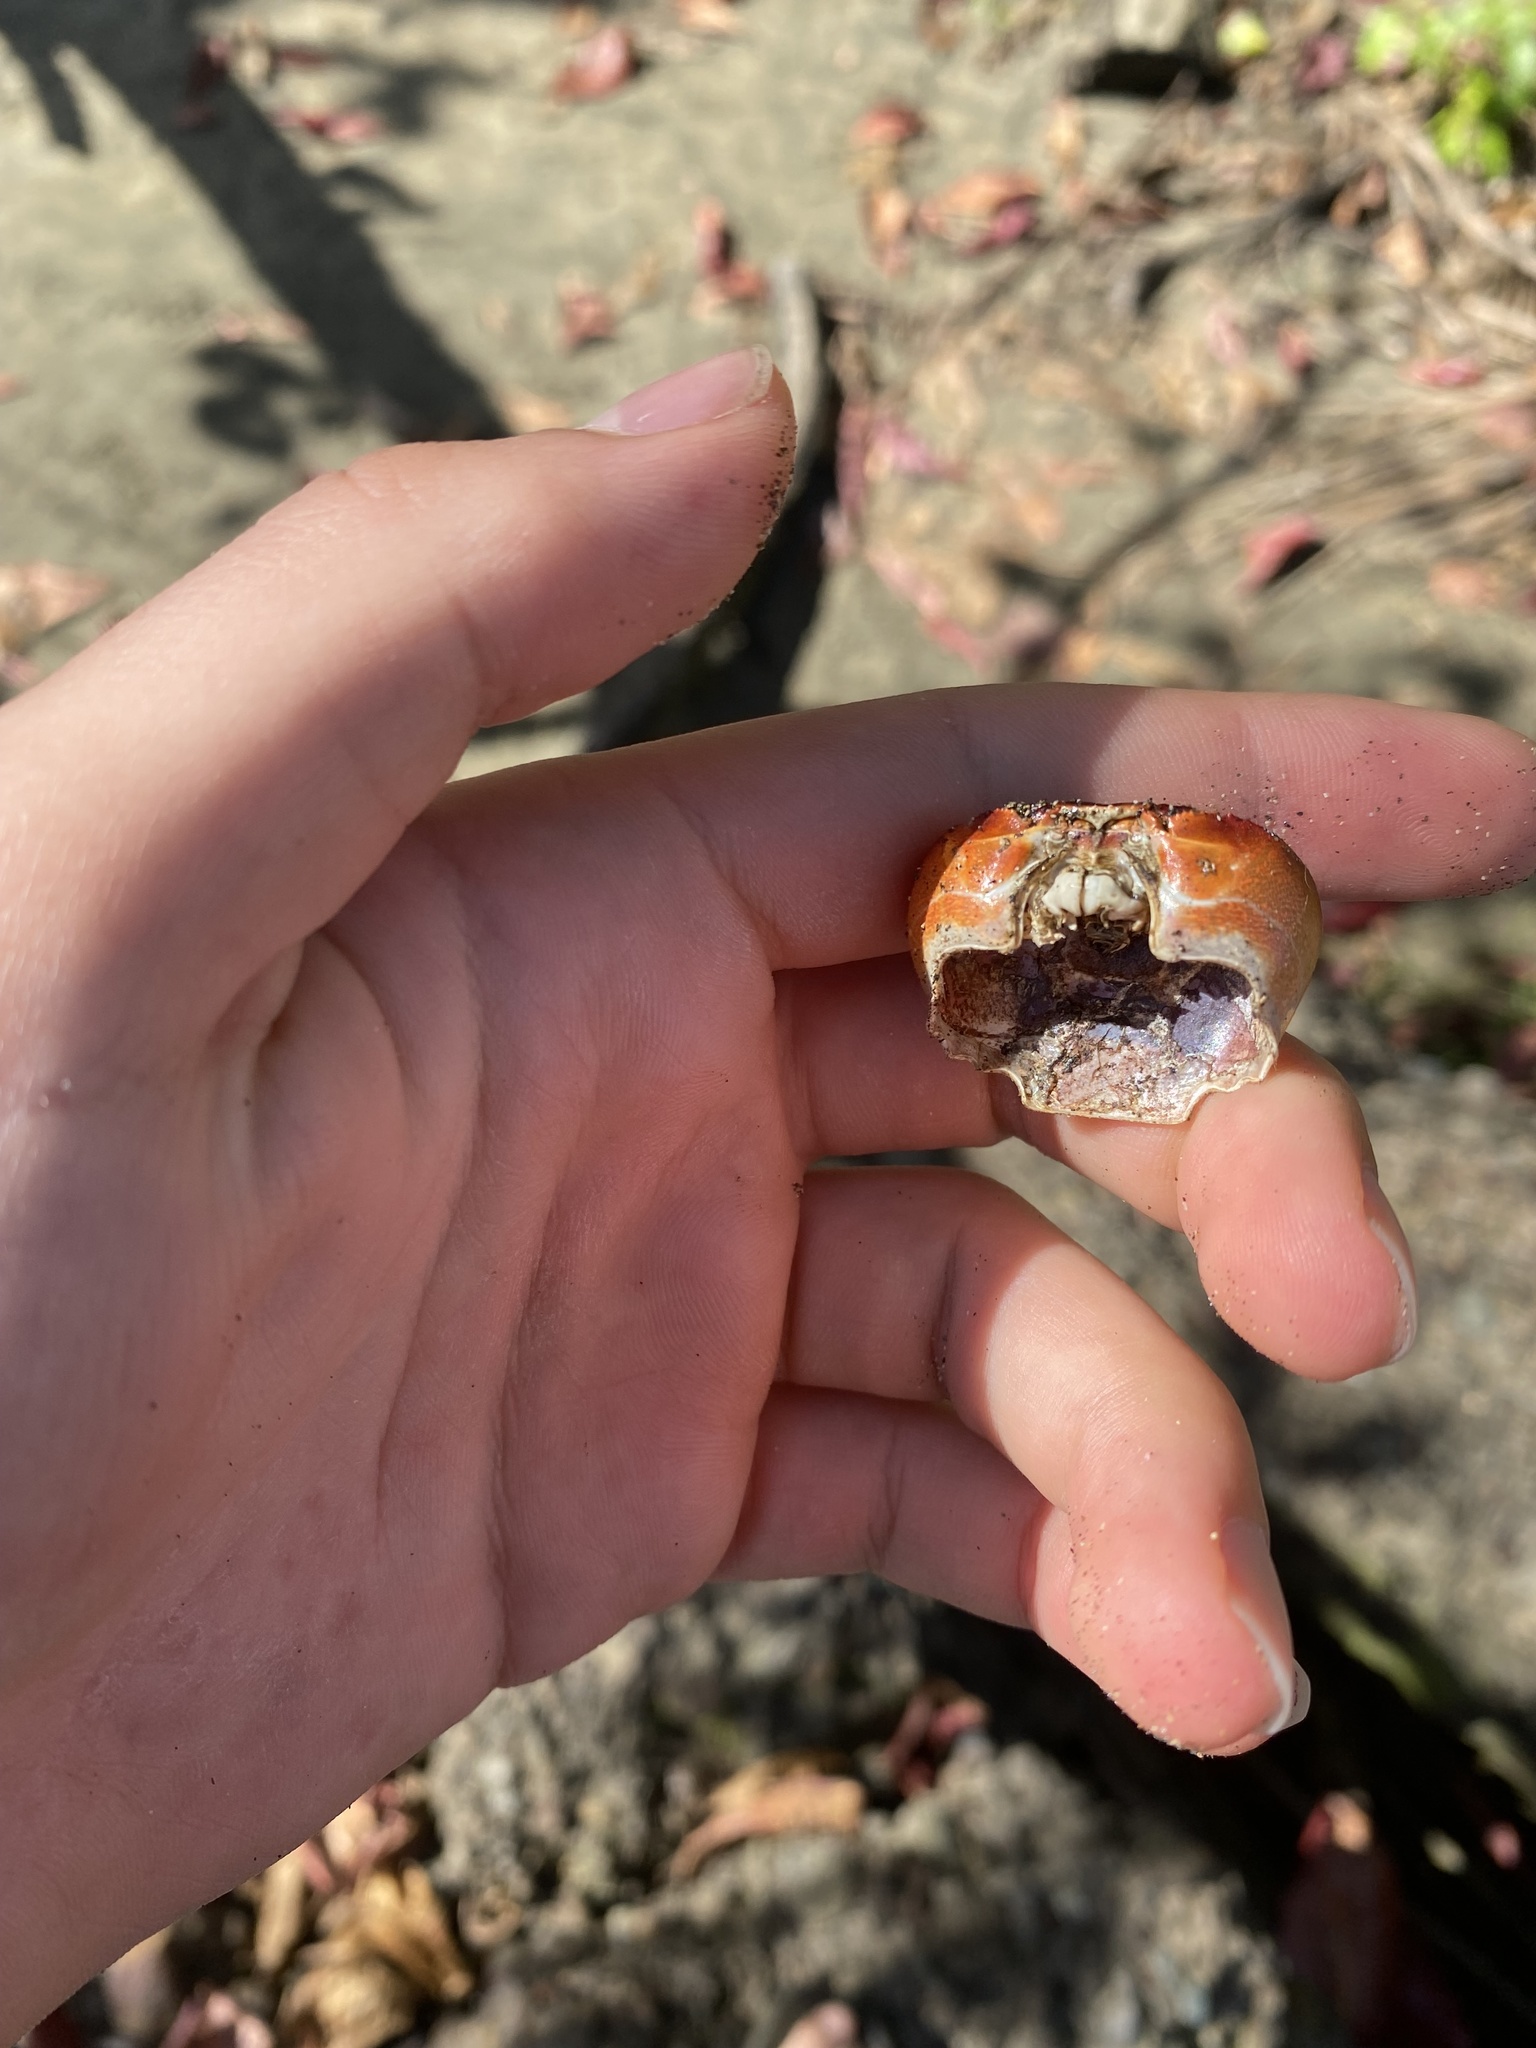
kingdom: Animalia
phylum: Arthropoda
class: Malacostraca
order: Decapoda
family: Gecarcinidae
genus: Gecarcinus
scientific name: Gecarcinus lateralis
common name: Bermuda land crab
